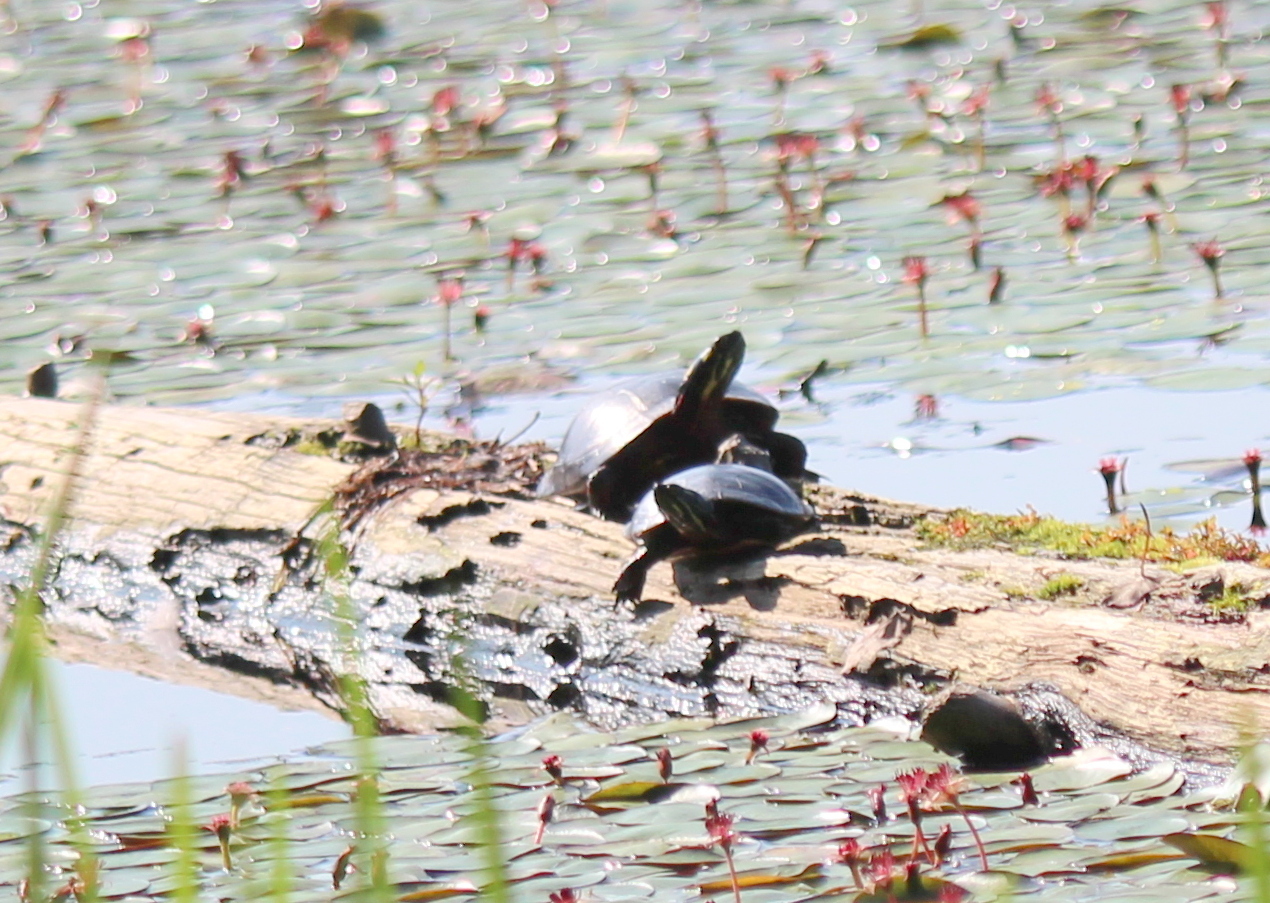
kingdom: Animalia
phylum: Chordata
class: Testudines
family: Emydidae
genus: Chrysemys
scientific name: Chrysemys picta
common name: Painted turtle
